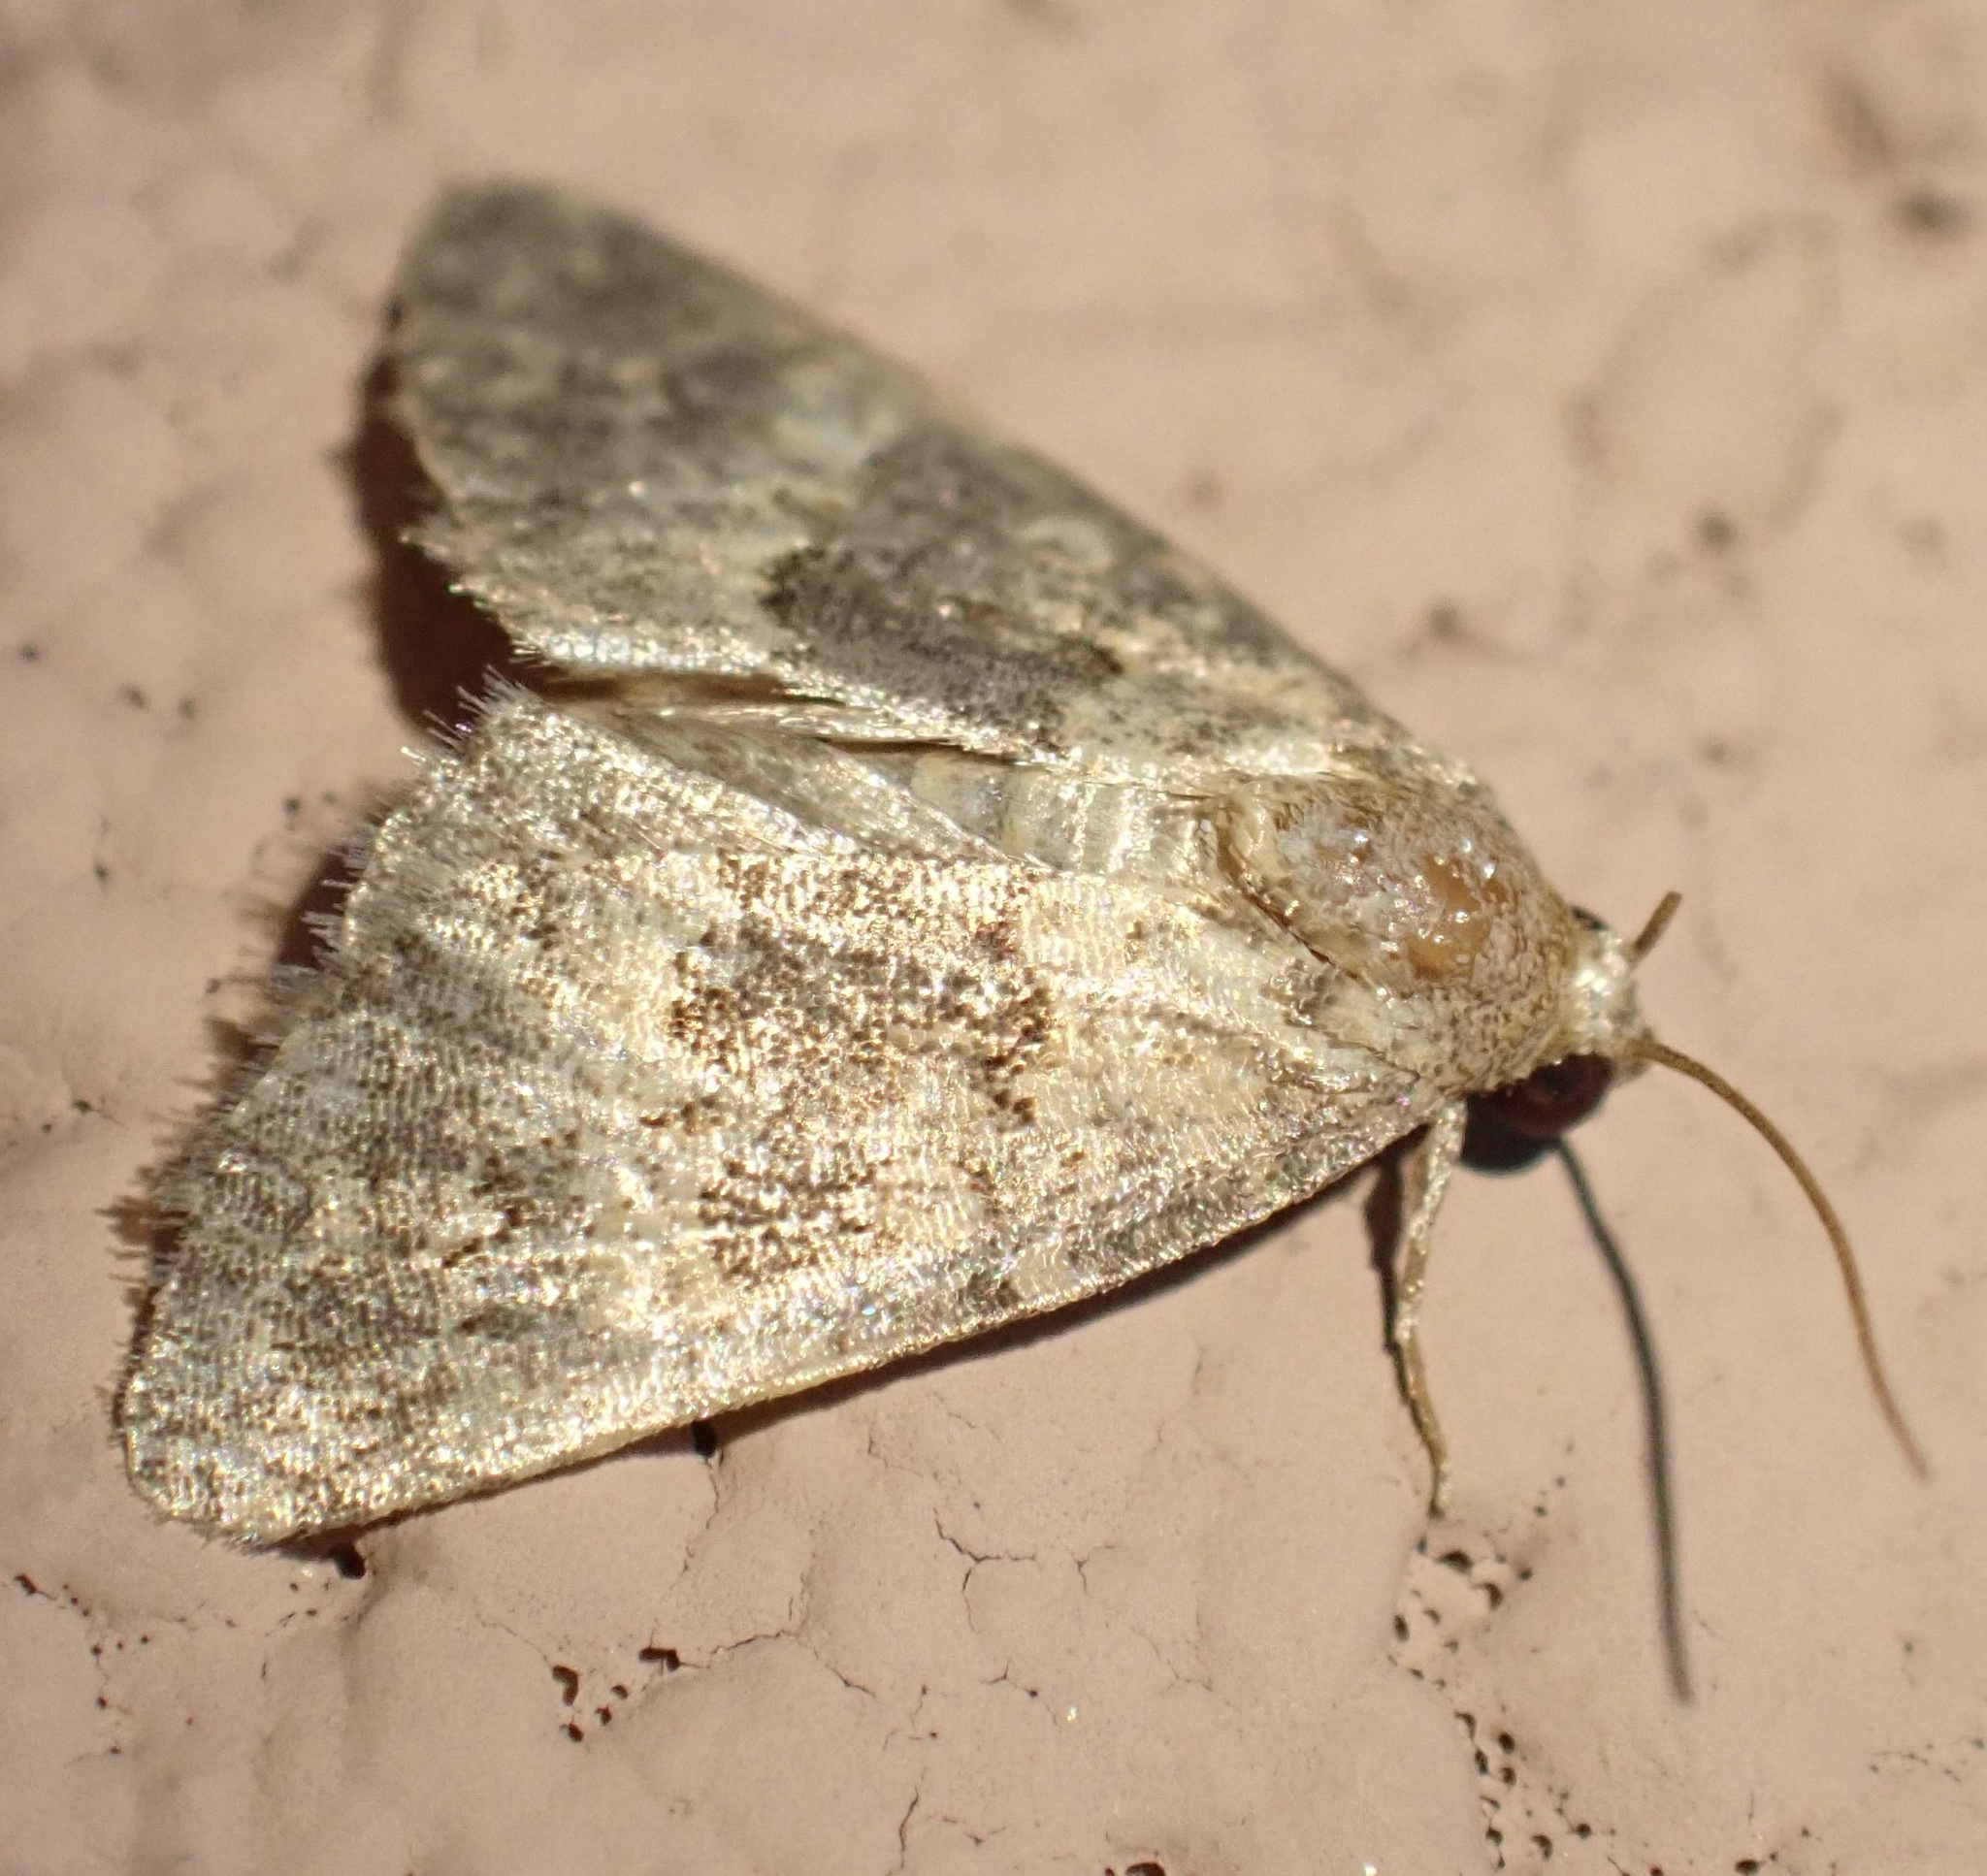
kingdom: Animalia
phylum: Arthropoda
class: Insecta
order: Lepidoptera
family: Noctuidae
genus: Duhemia
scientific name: Duhemia variegata
